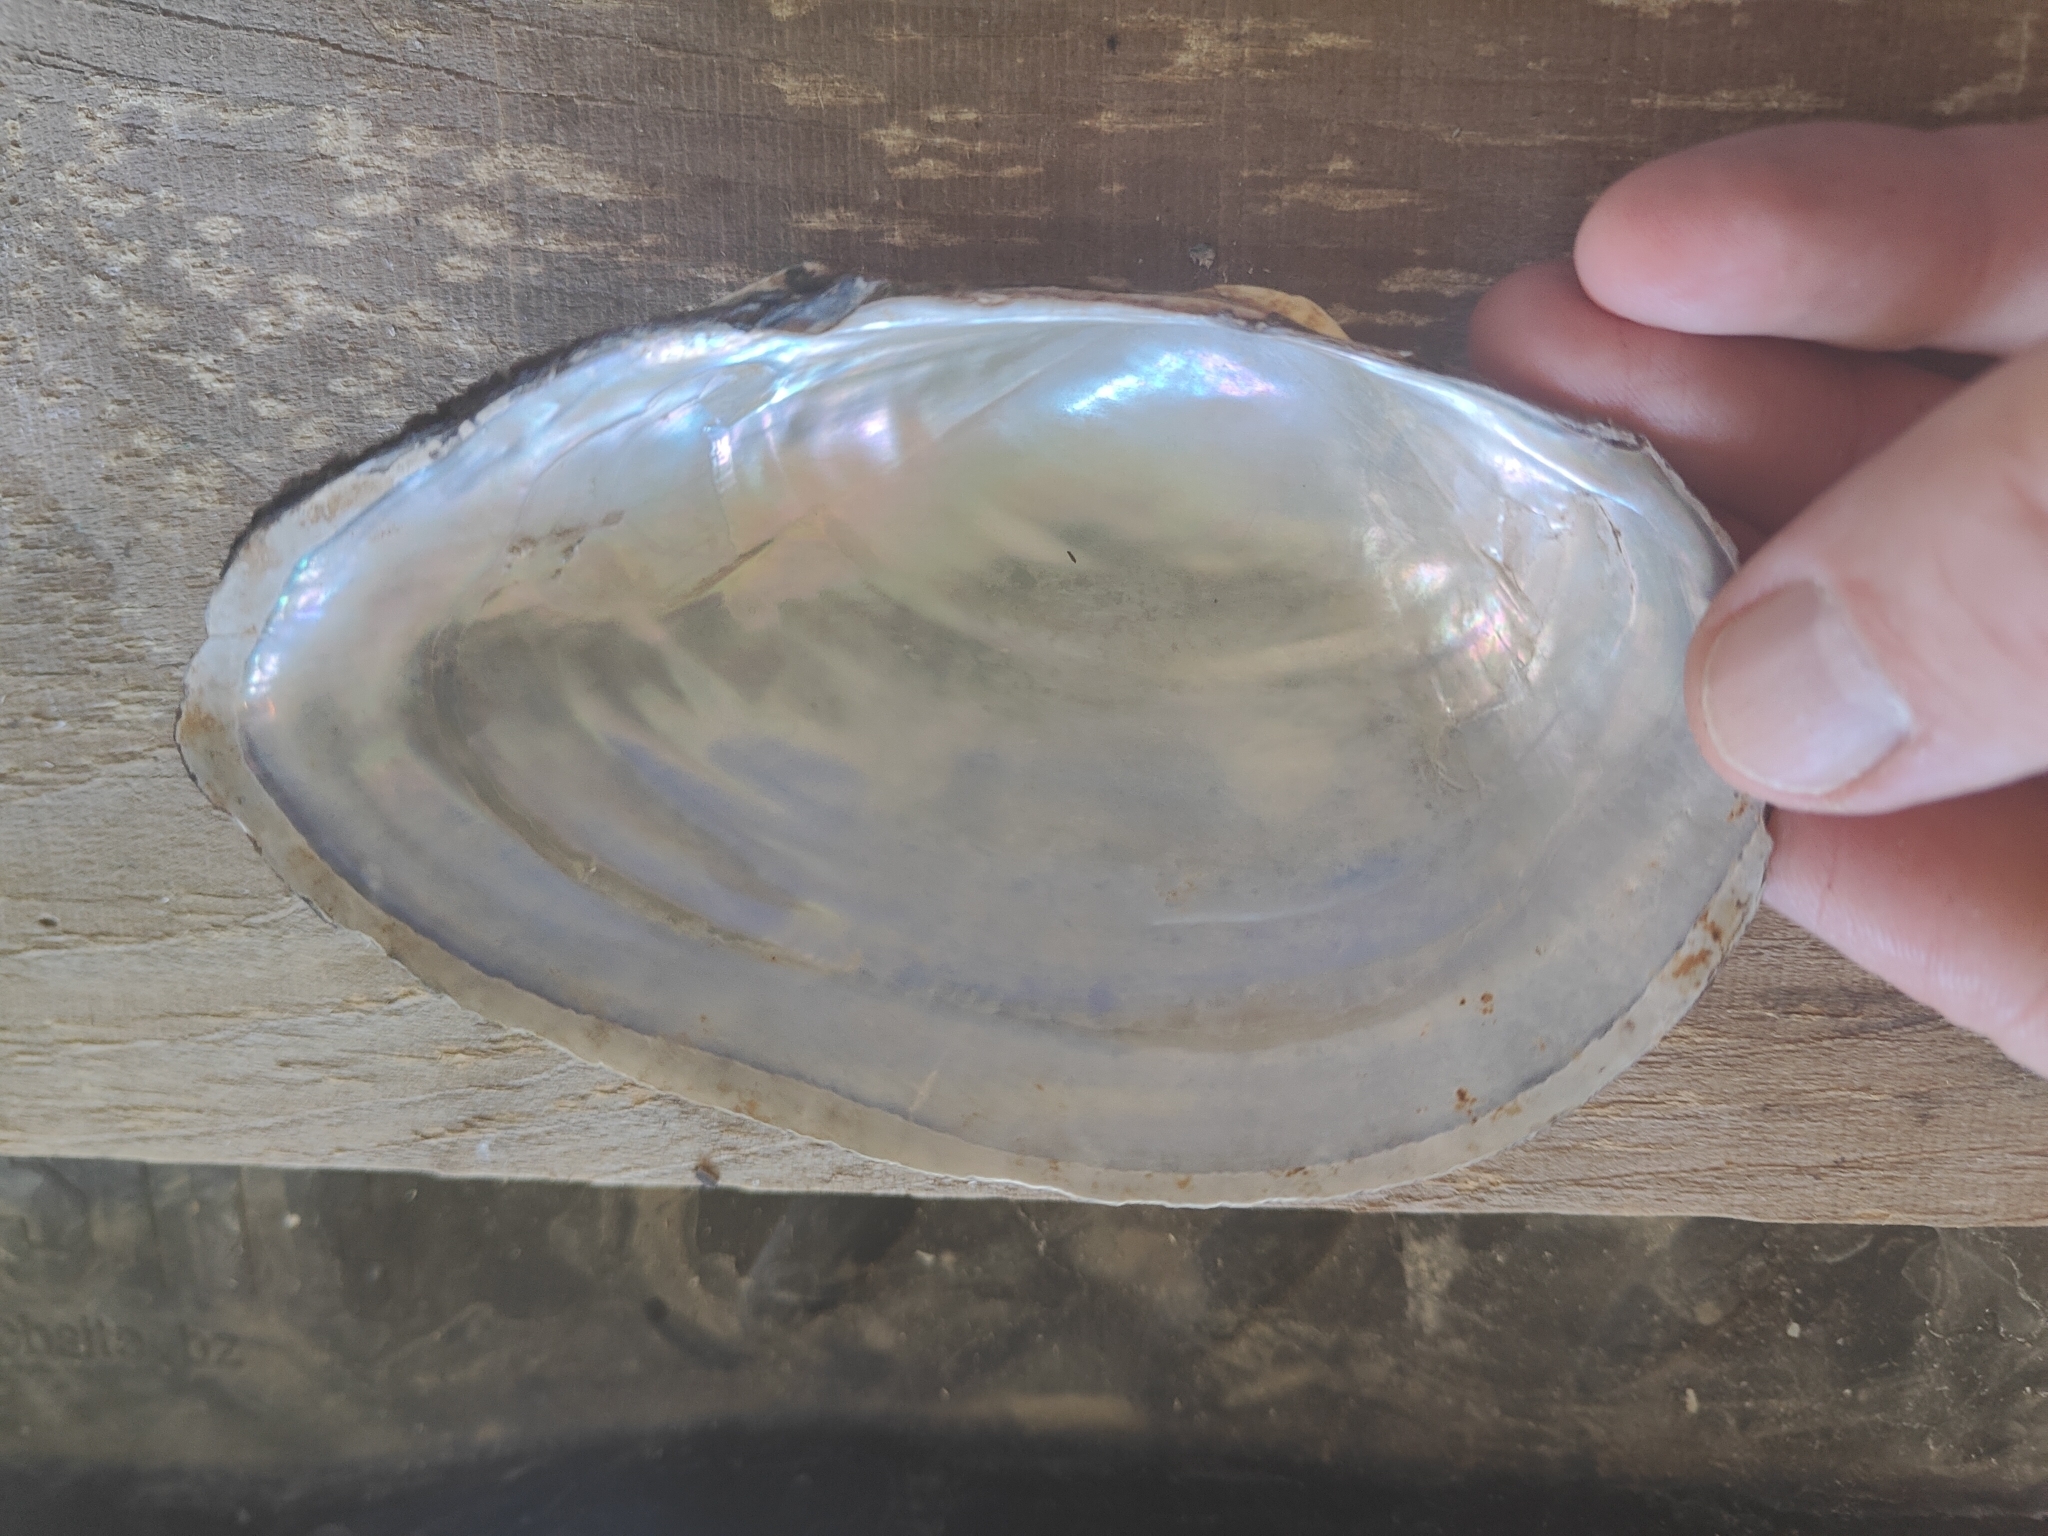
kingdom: Animalia
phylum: Mollusca
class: Bivalvia
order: Unionida
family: Unionidae
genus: Pyganodon
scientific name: Pyganodon grandis
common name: Giant floater
